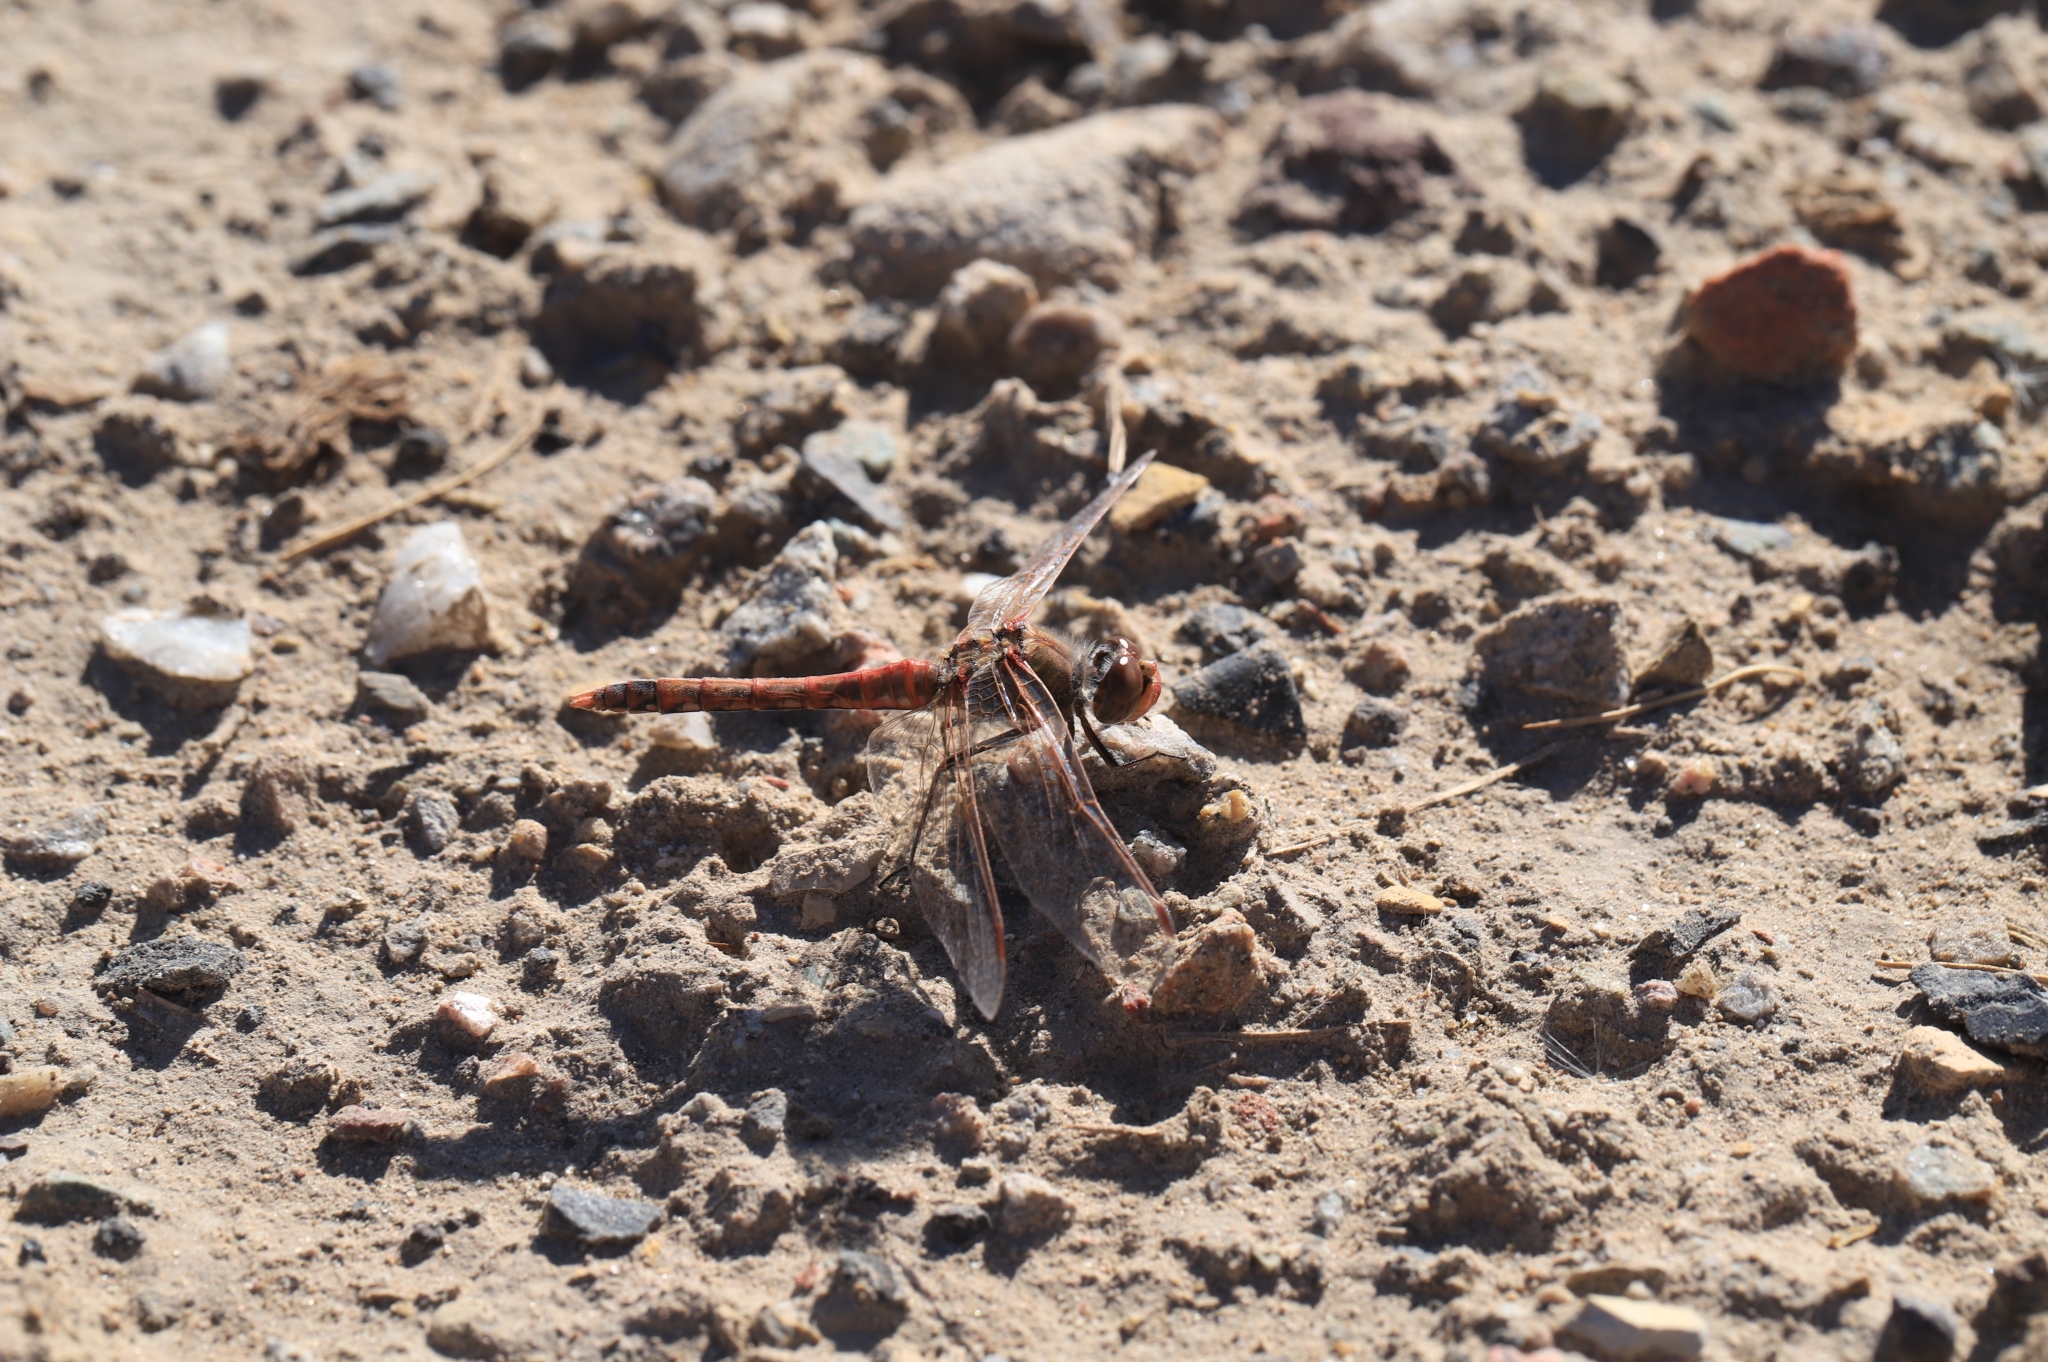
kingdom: Animalia
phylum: Arthropoda
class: Insecta
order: Odonata
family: Libellulidae
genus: Sympetrum
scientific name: Sympetrum corruptum
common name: Variegated meadowhawk
